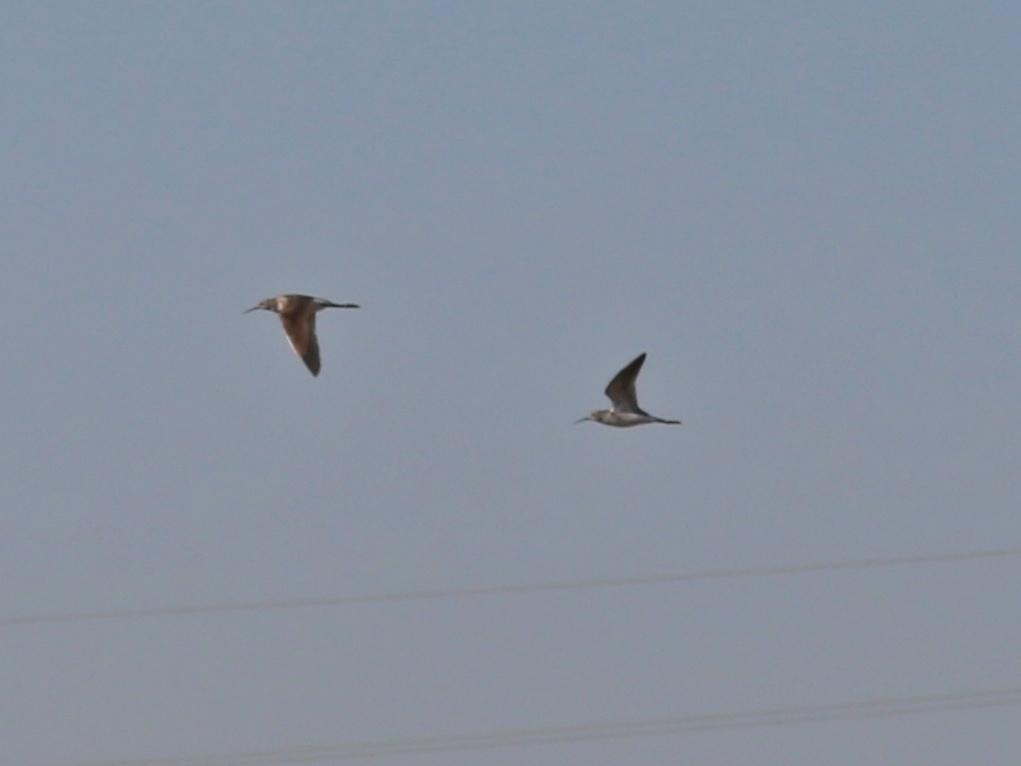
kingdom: Animalia
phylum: Chordata
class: Aves
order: Charadriiformes
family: Scolopacidae
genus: Tringa
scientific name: Tringa stagnatilis
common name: Marsh sandpiper
